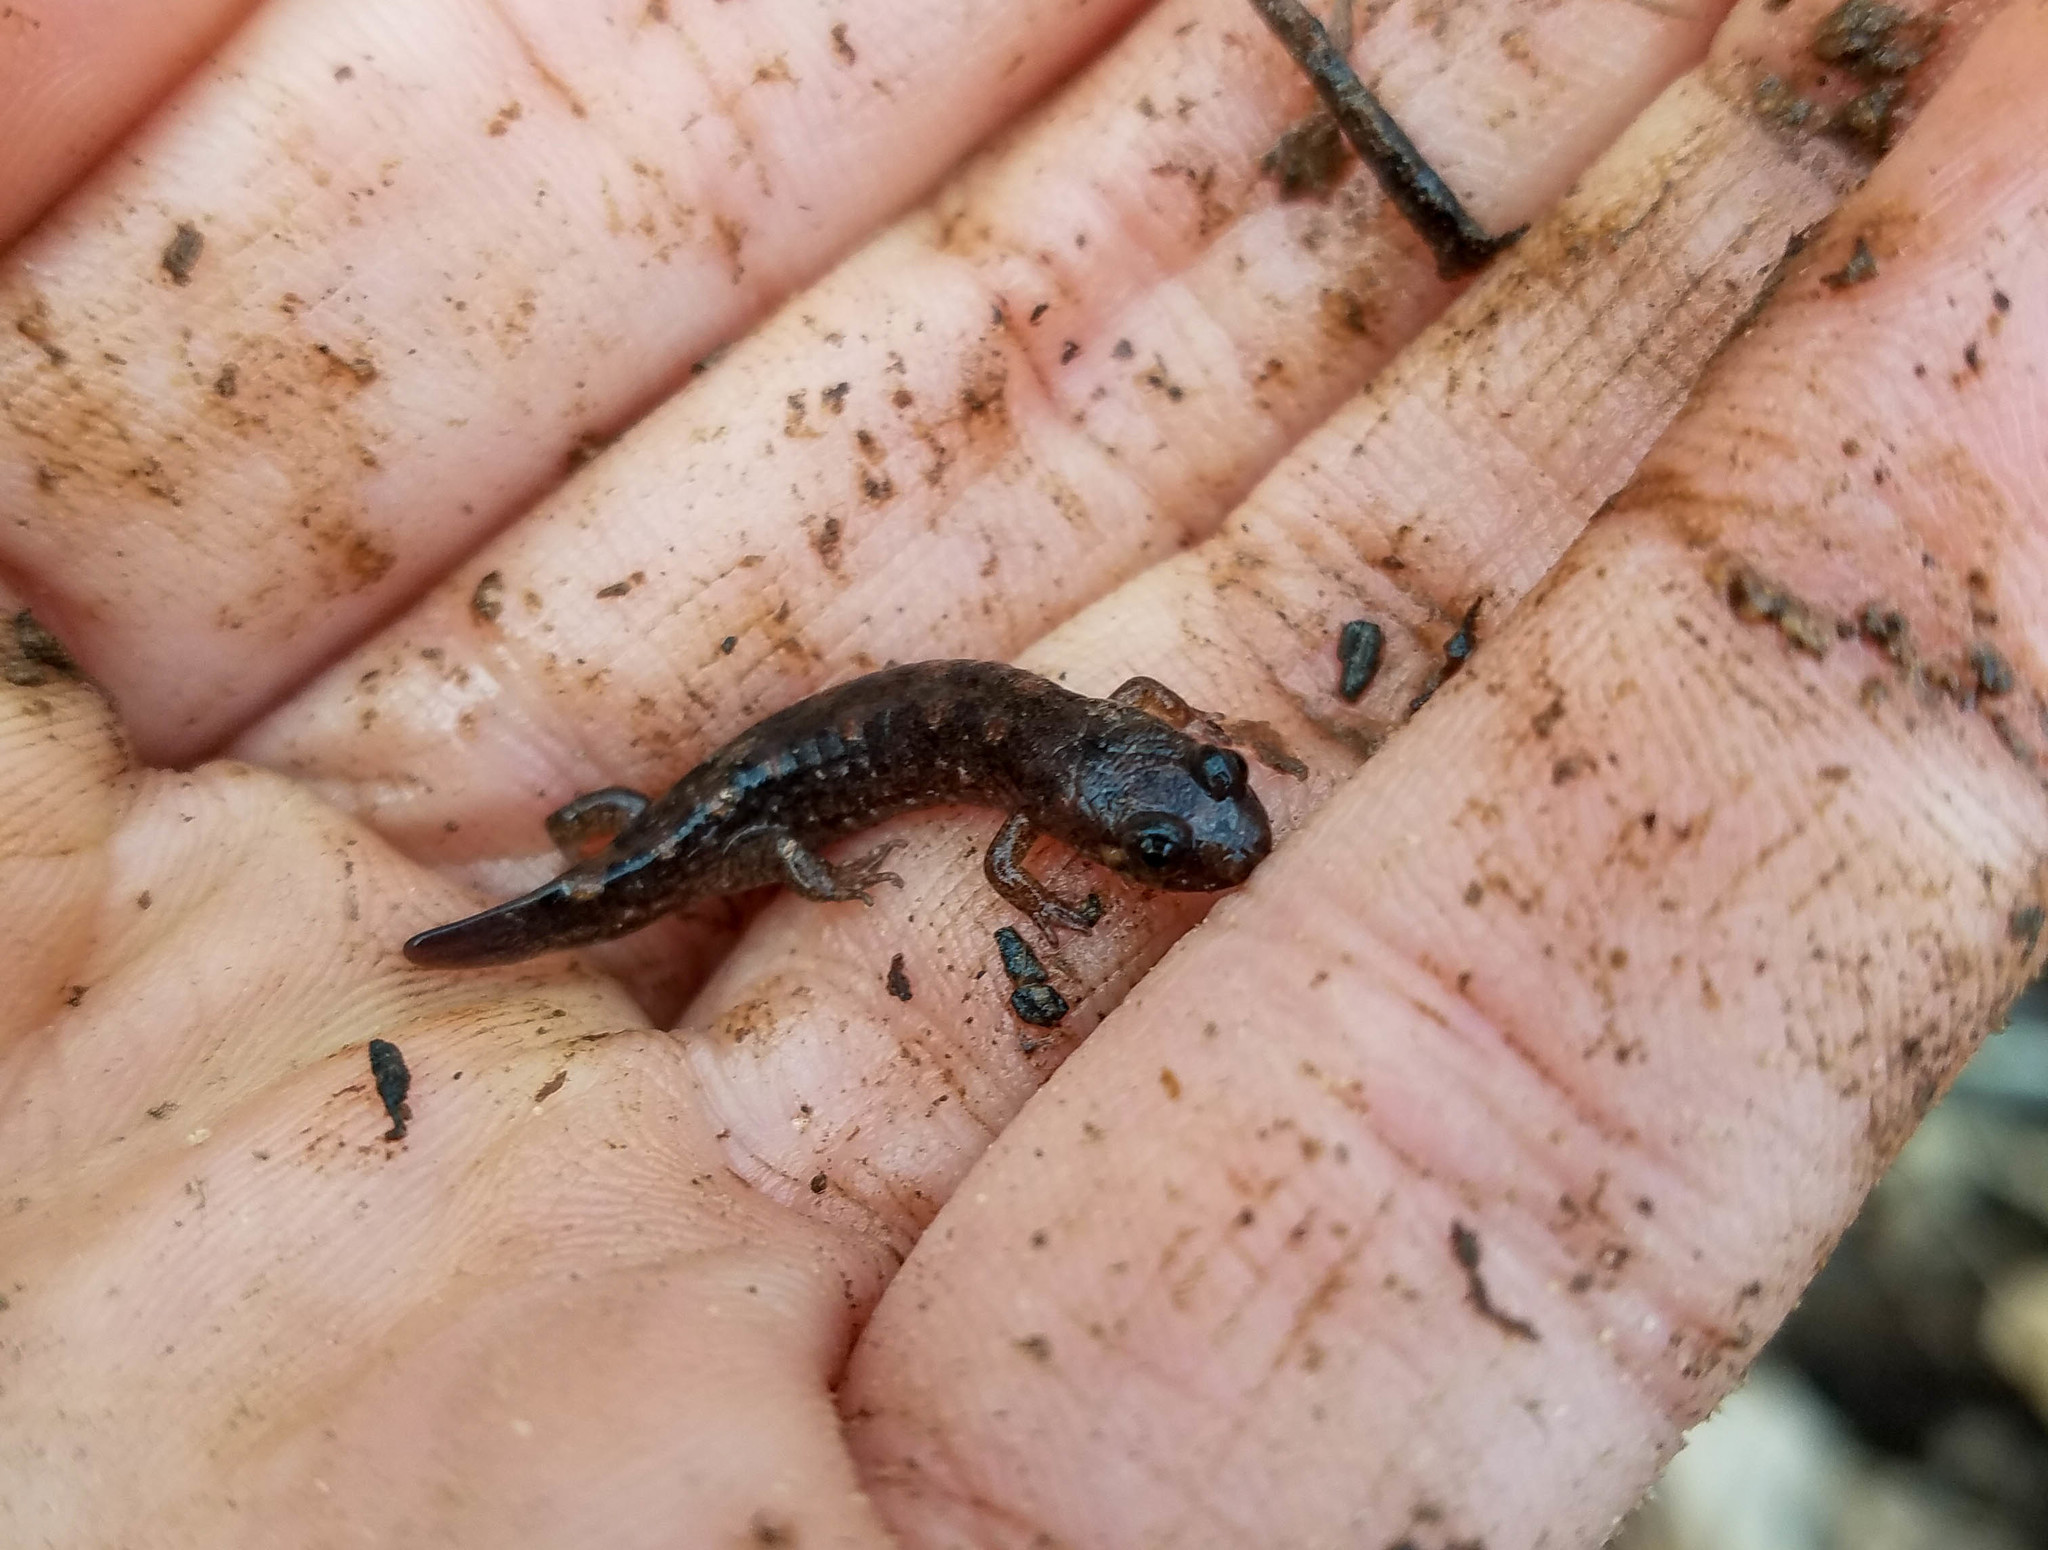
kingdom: Animalia
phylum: Chordata
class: Amphibia
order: Caudata
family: Plethodontidae
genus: Desmognathus
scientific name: Desmognathus monticola
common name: Seal salamander
